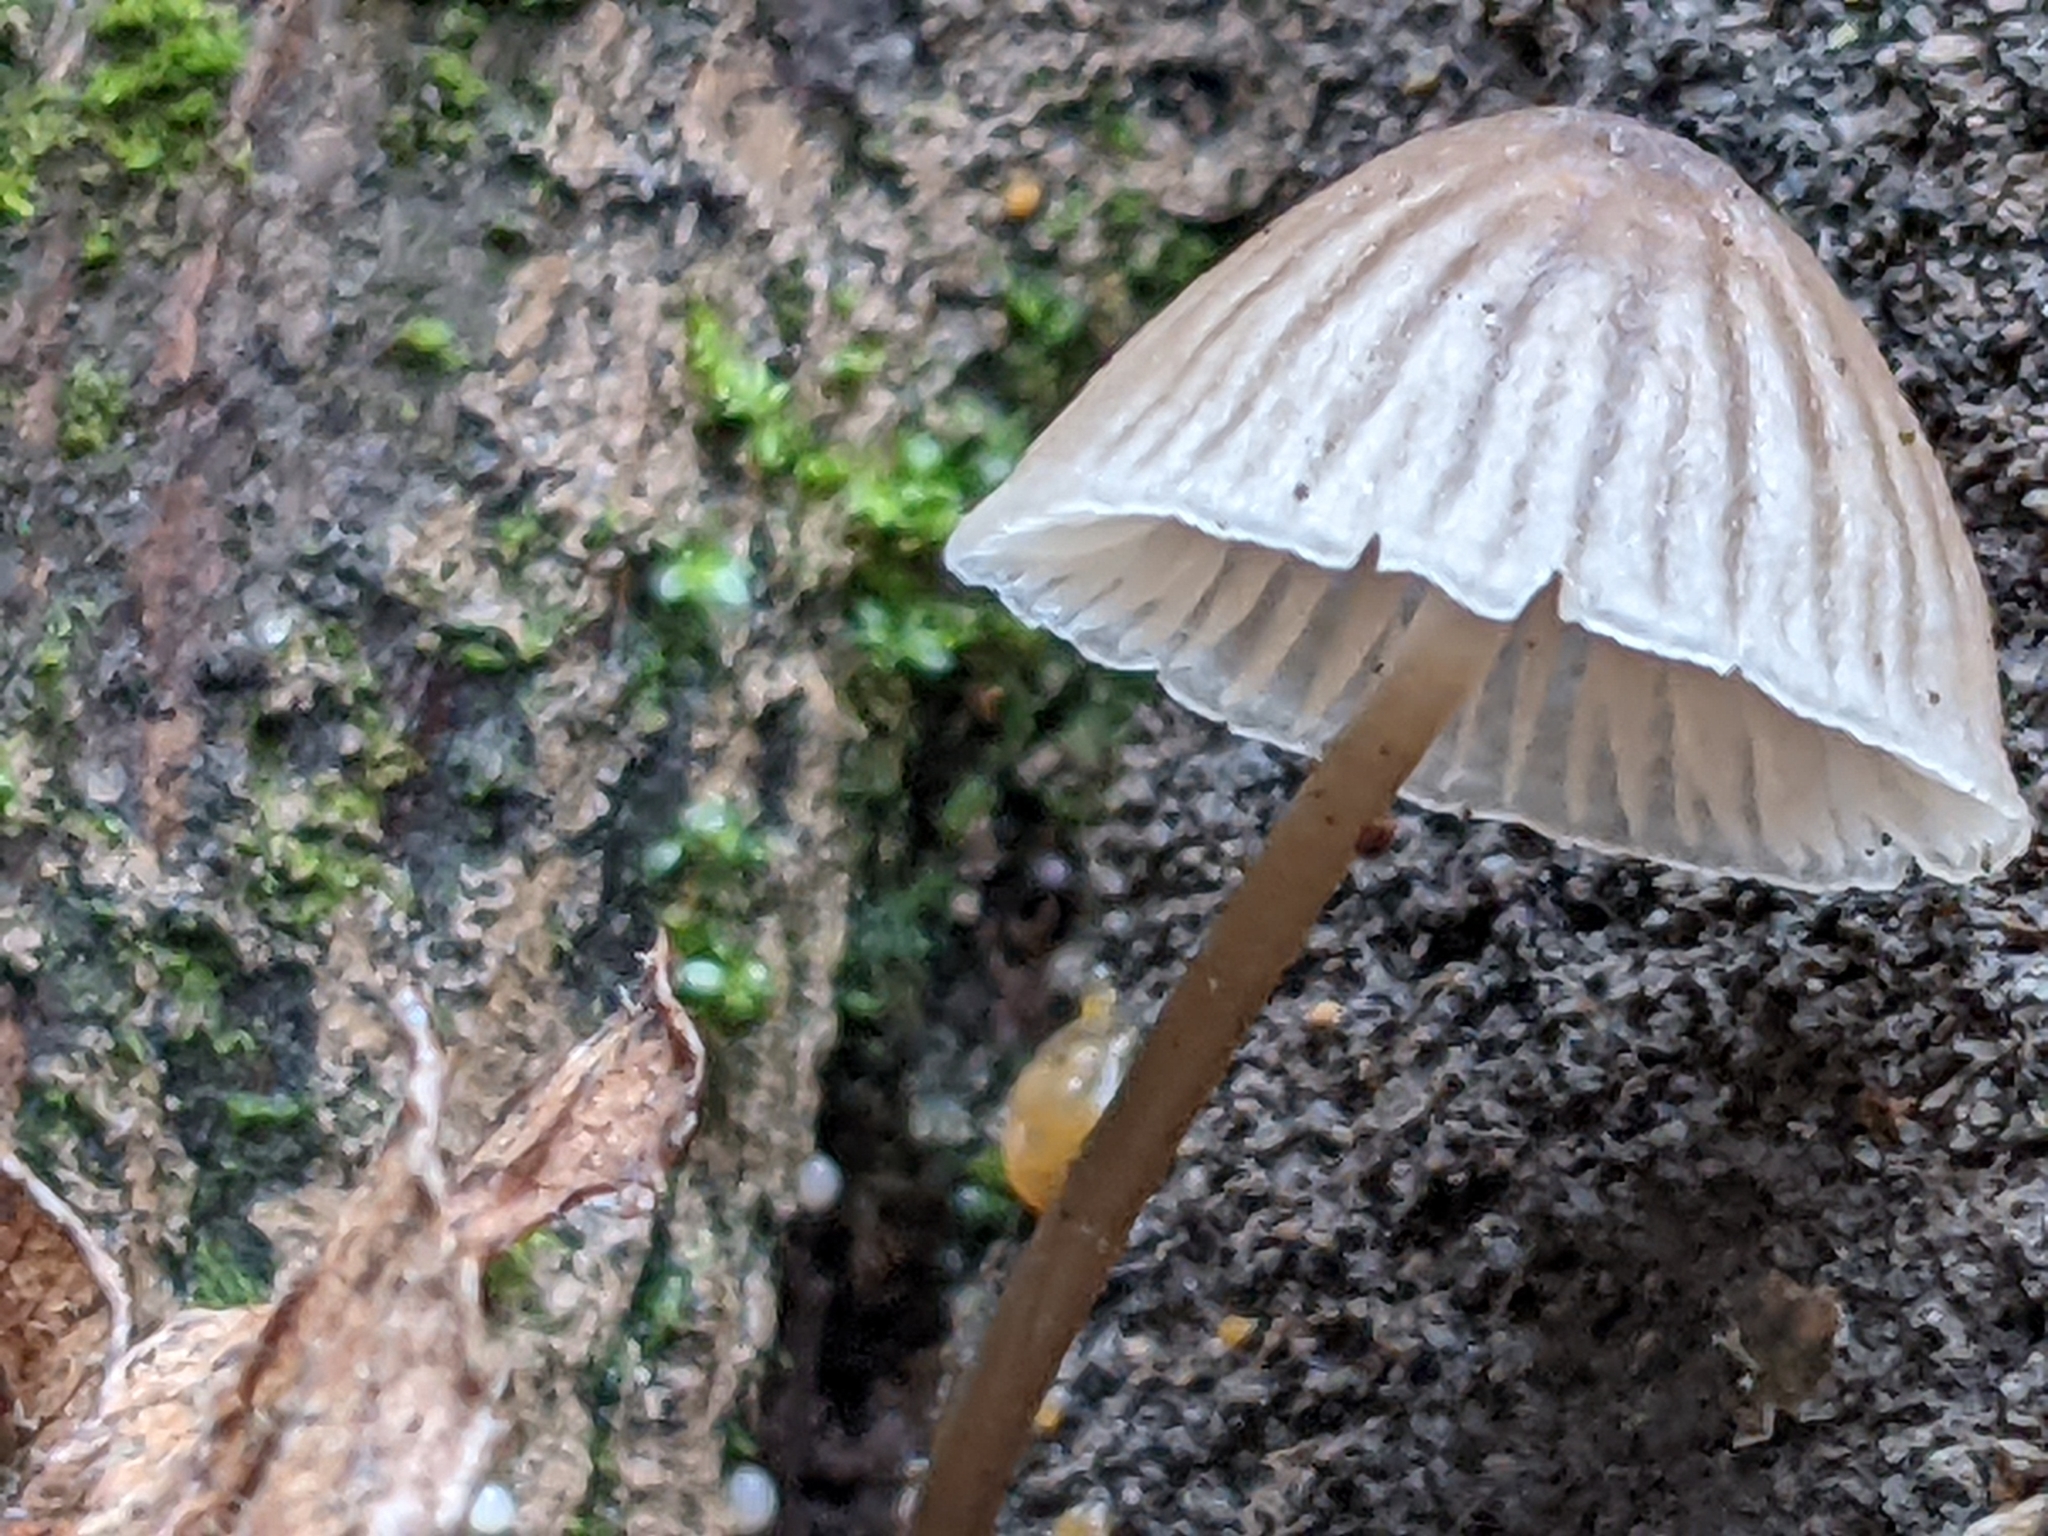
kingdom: Fungi
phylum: Basidiomycota
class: Agaricomycetes
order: Agaricales
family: Mycenaceae
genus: Mycena
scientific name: Mycena galericulata
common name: Bonnet mycena
